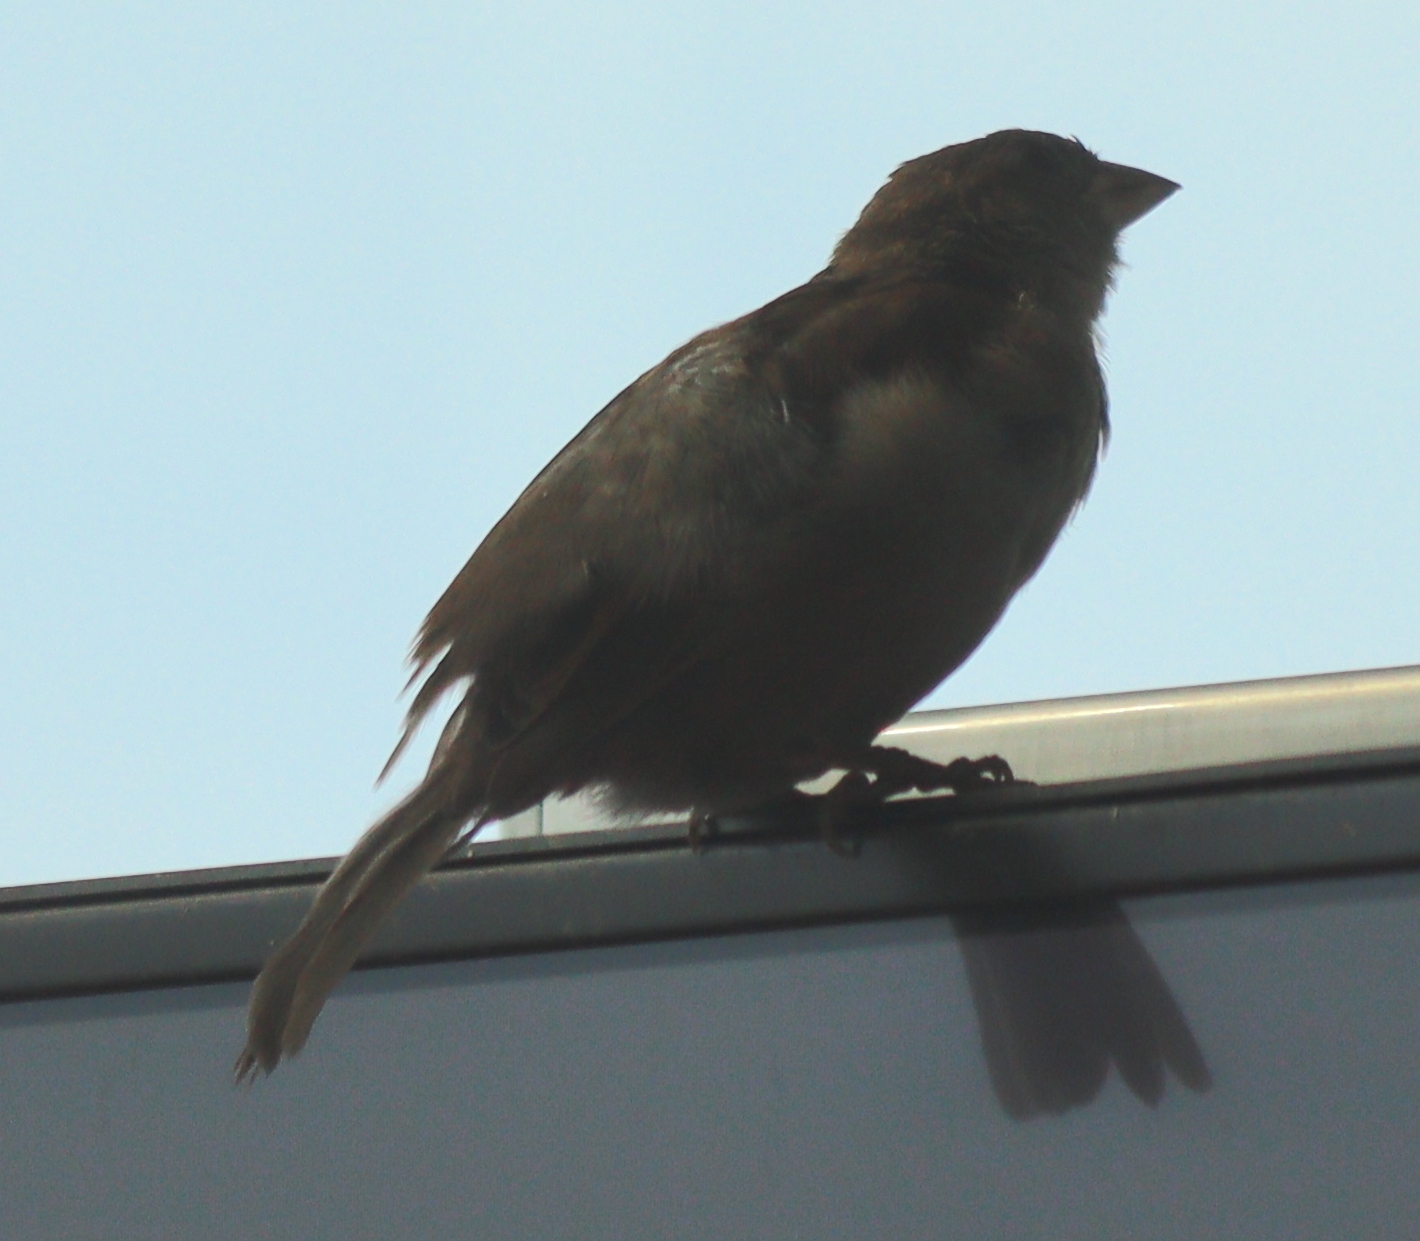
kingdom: Animalia
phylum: Chordata
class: Aves
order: Passeriformes
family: Passeridae
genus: Passer
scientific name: Passer domesticus
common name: House sparrow
